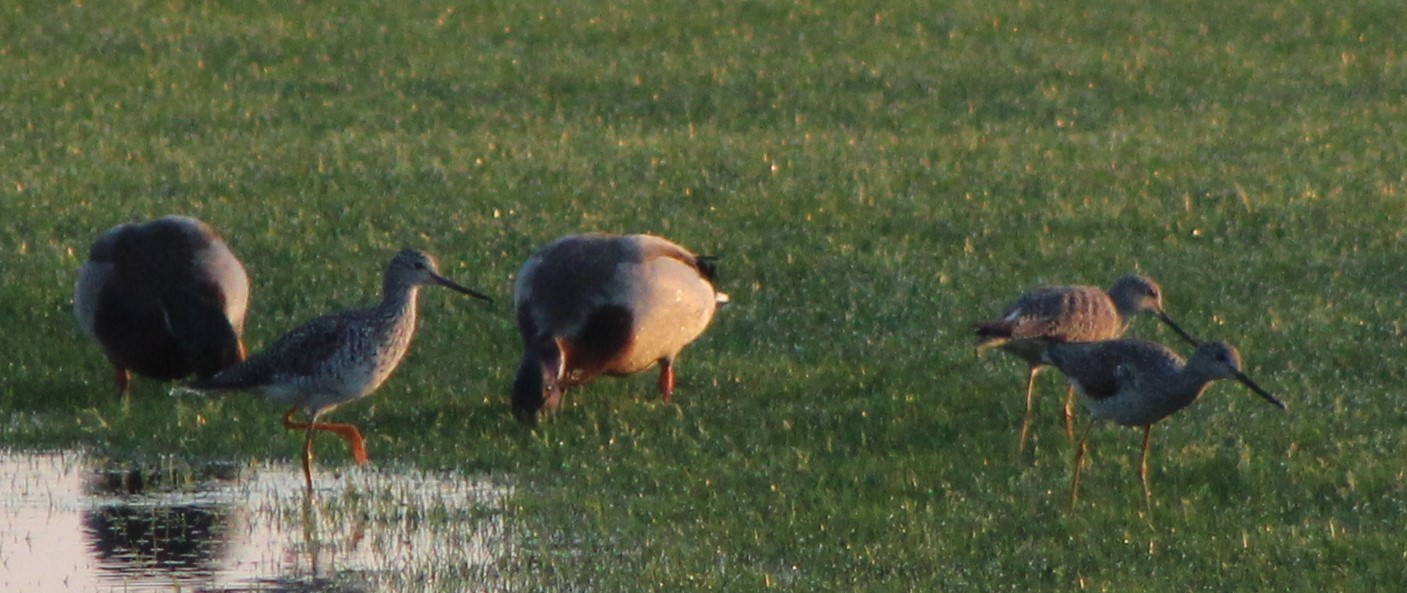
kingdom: Animalia
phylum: Chordata
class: Aves
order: Charadriiformes
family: Scolopacidae
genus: Tringa
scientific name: Tringa melanoleuca
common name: Greater yellowlegs
